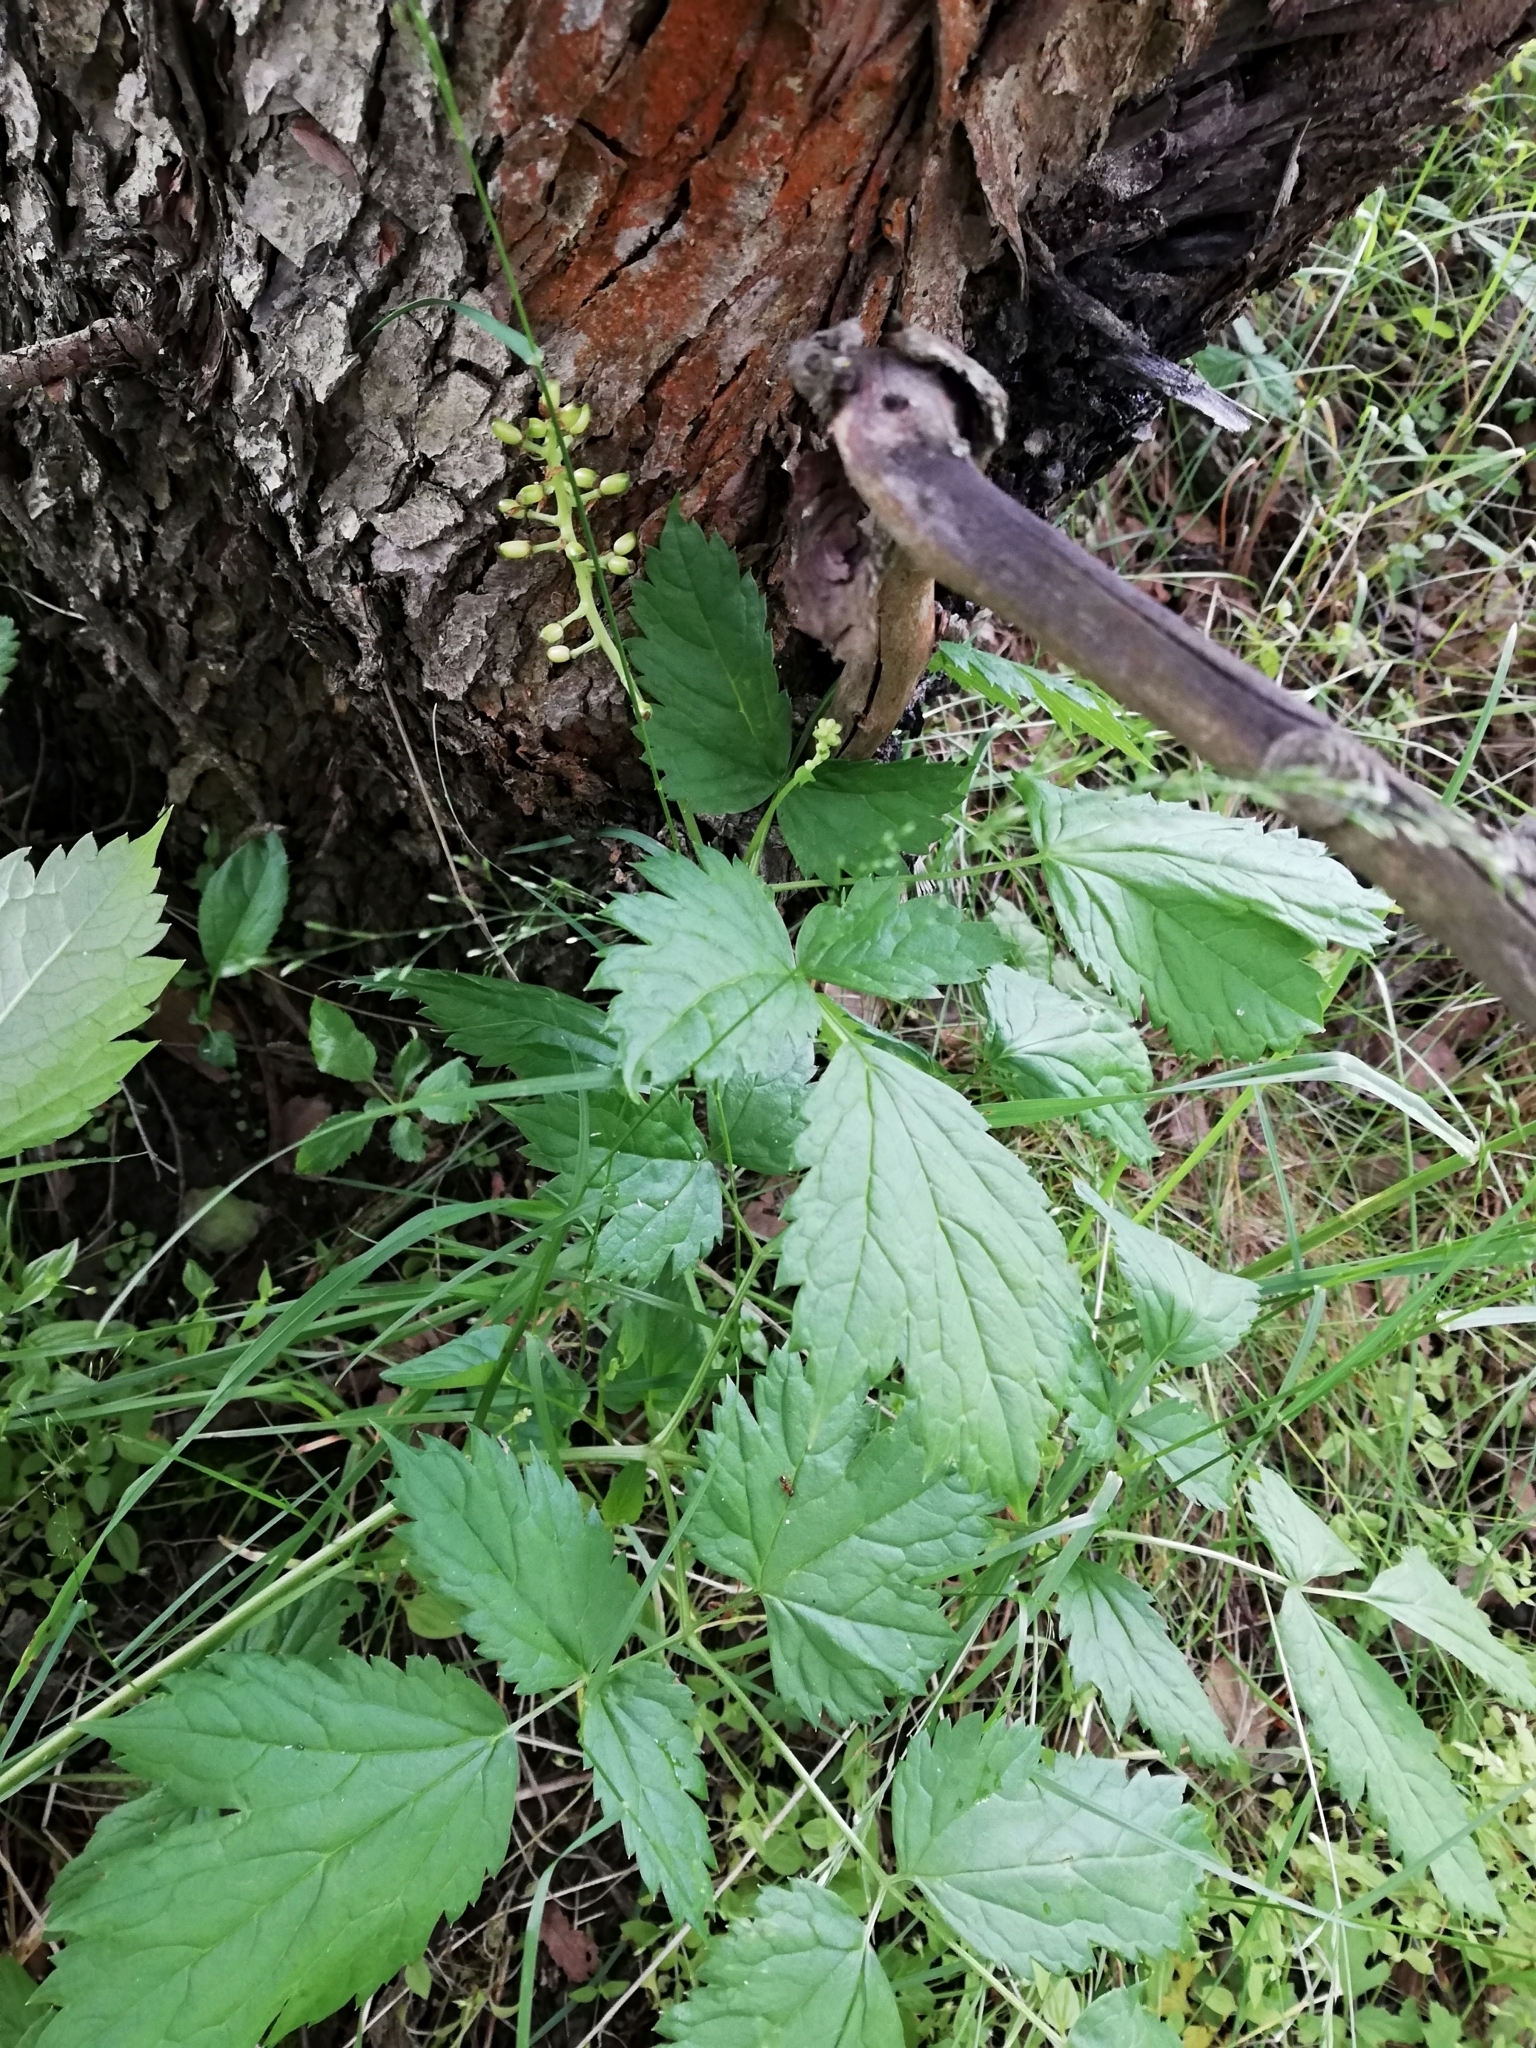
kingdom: Plantae
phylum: Tracheophyta
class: Magnoliopsida
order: Ranunculales
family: Ranunculaceae
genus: Actaea
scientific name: Actaea spicata
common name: Baneberry
